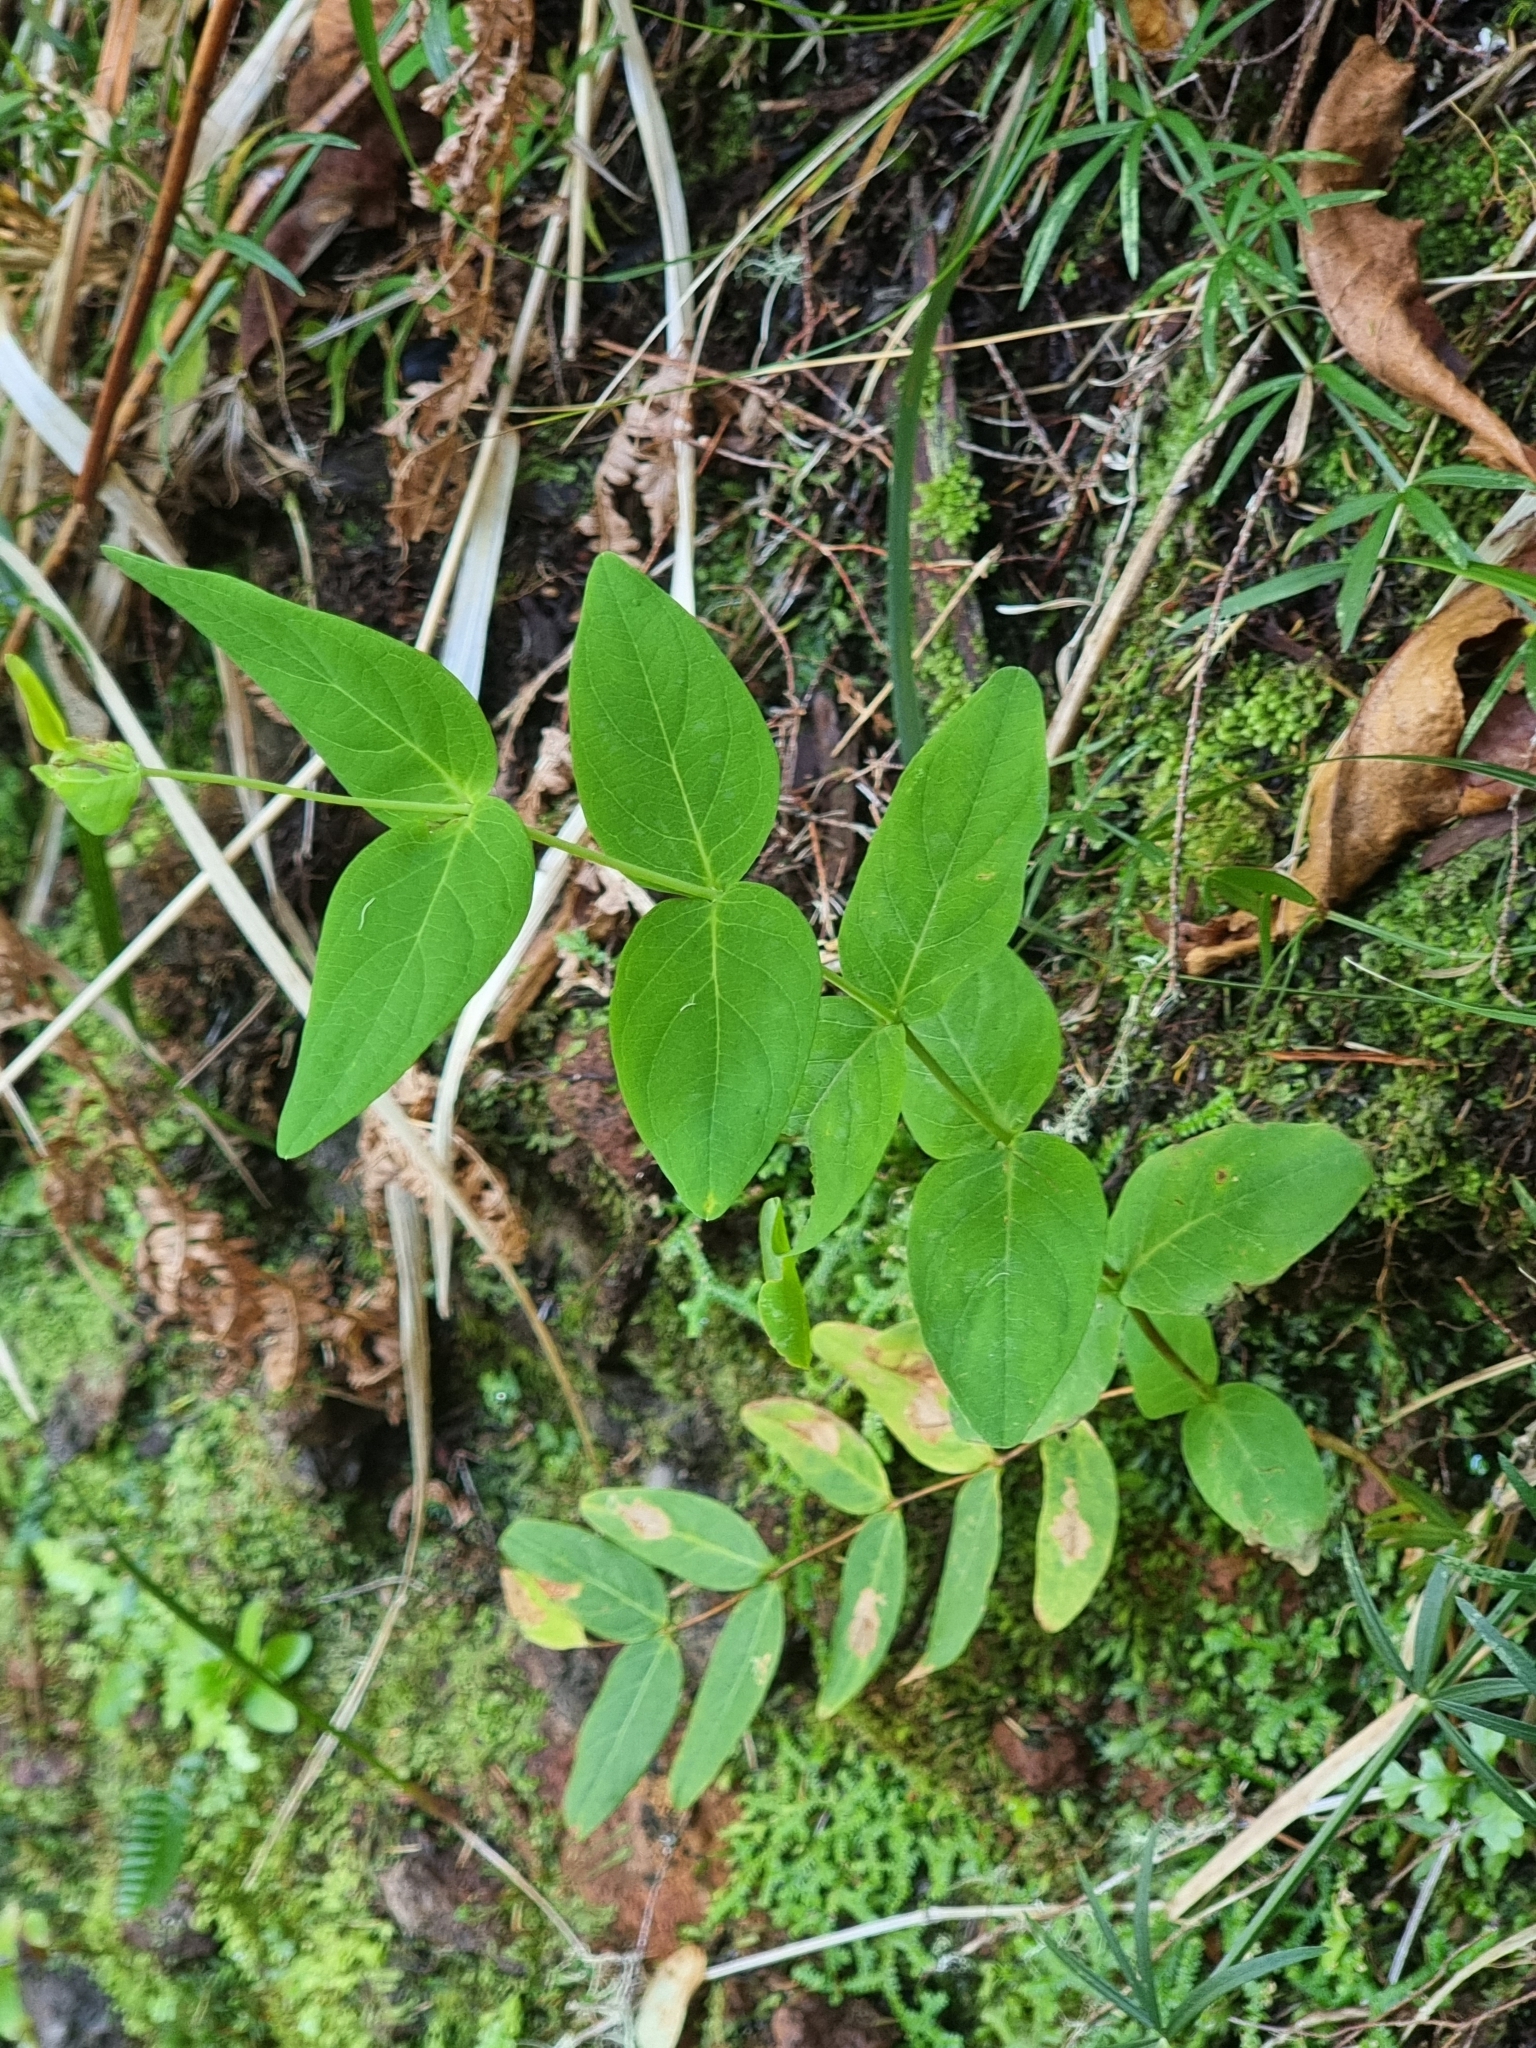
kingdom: Plantae
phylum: Tracheophyta
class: Magnoliopsida
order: Malpighiales
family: Hypericaceae
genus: Hypericum
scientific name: Hypericum grandifolium
